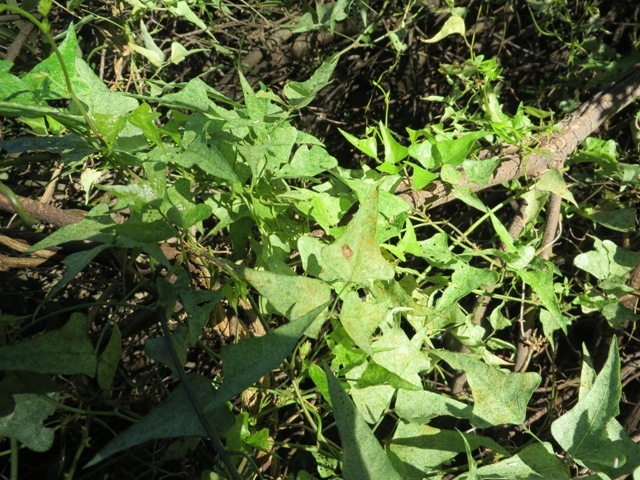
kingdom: Plantae
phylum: Tracheophyta
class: Magnoliopsida
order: Fabales
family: Fabaceae
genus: Dipogon
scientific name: Dipogon lignosus
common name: Okie bean
